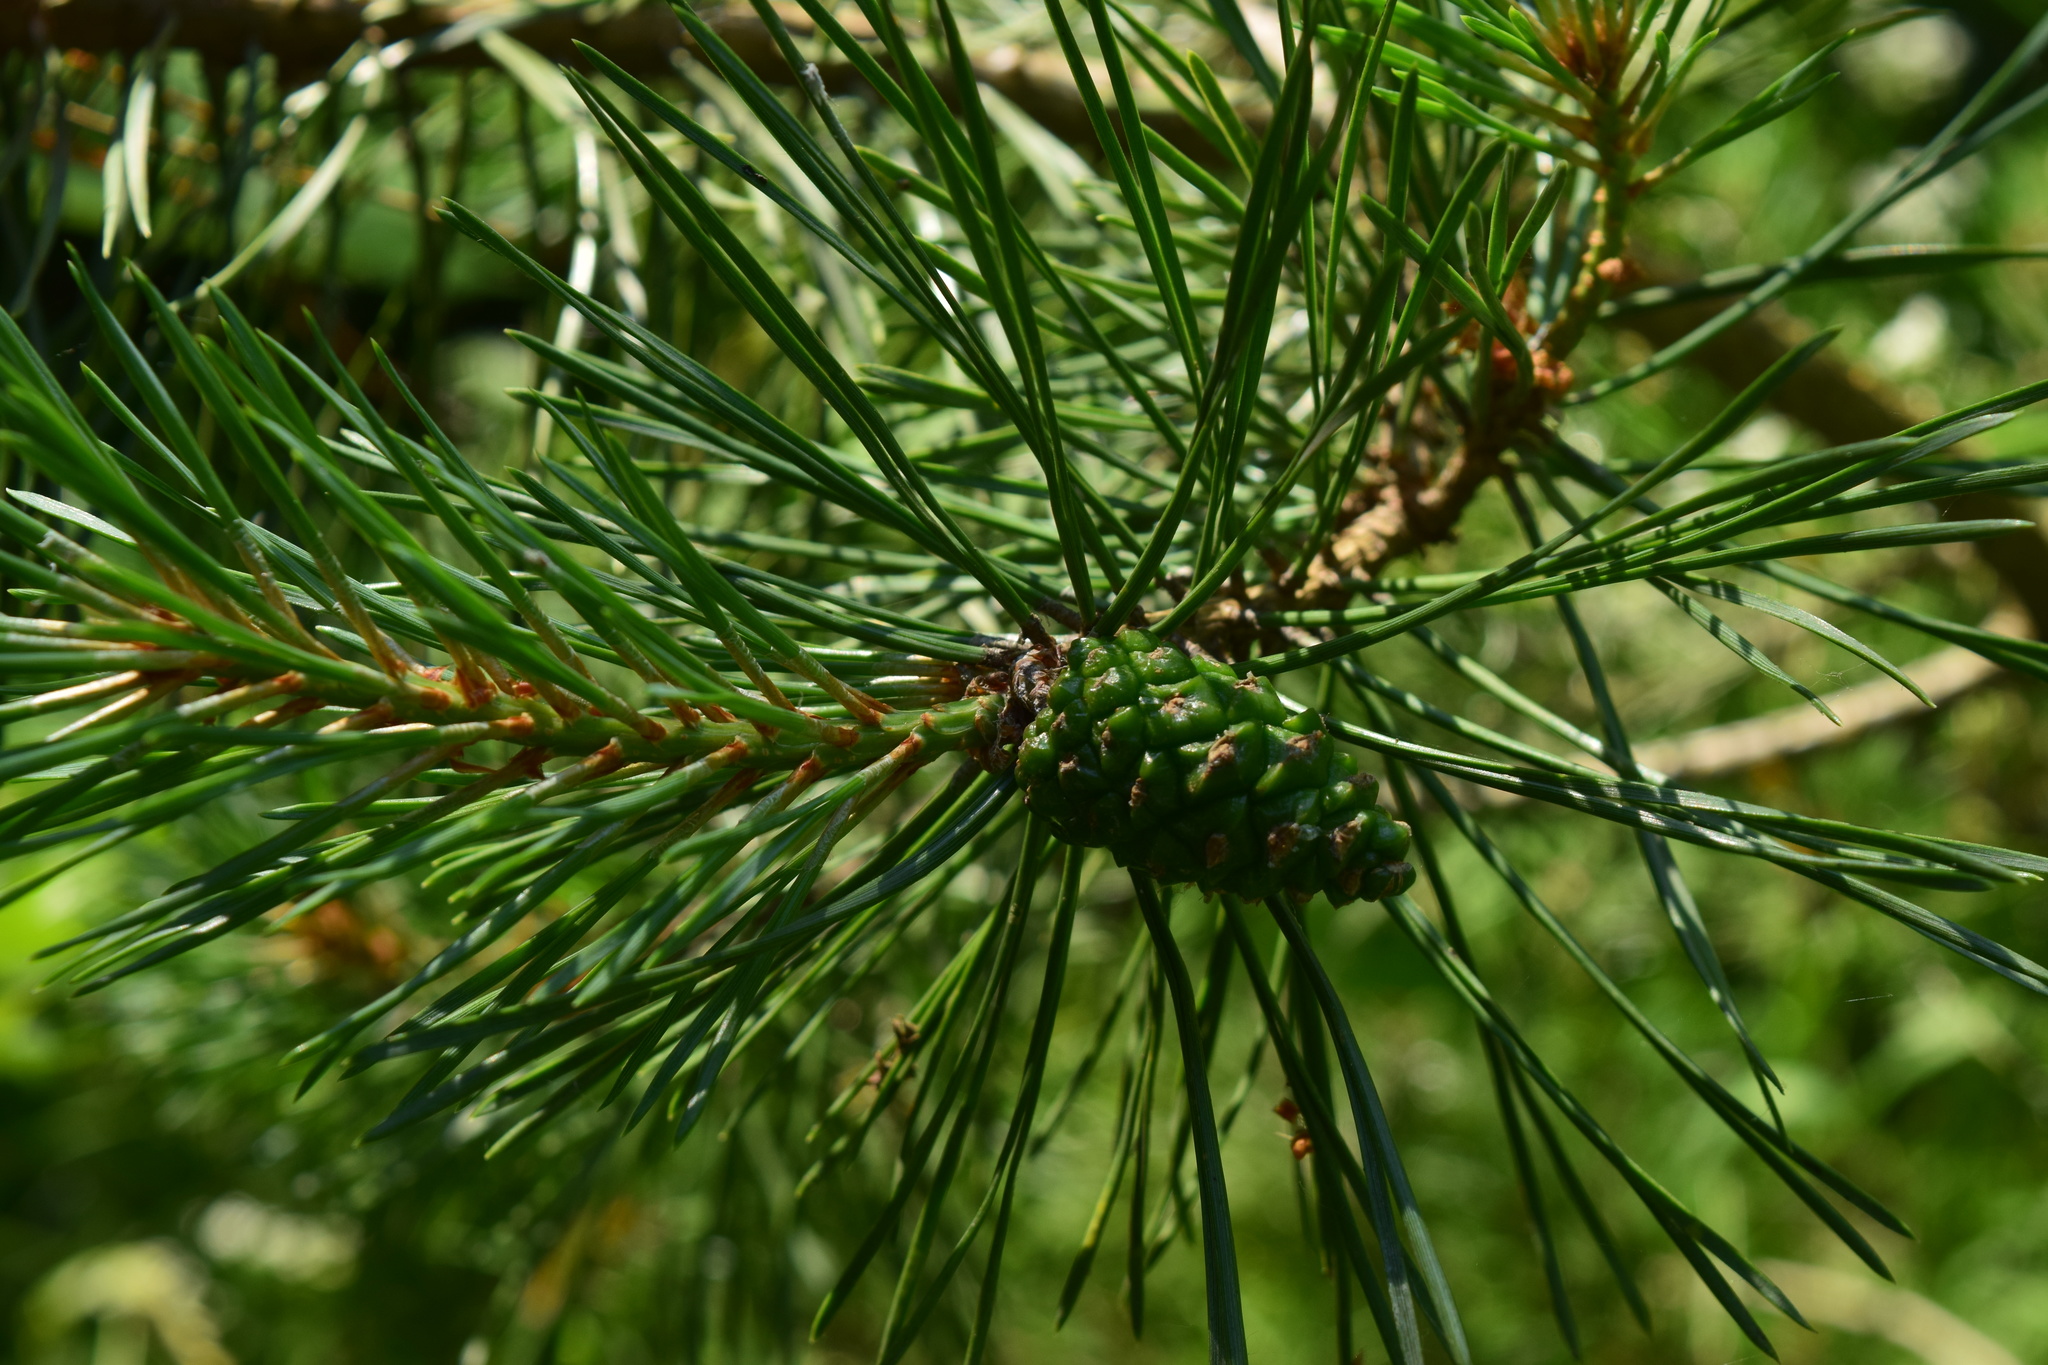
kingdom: Plantae
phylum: Tracheophyta
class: Pinopsida
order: Pinales
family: Pinaceae
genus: Pinus
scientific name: Pinus sylvestris
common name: Scots pine
